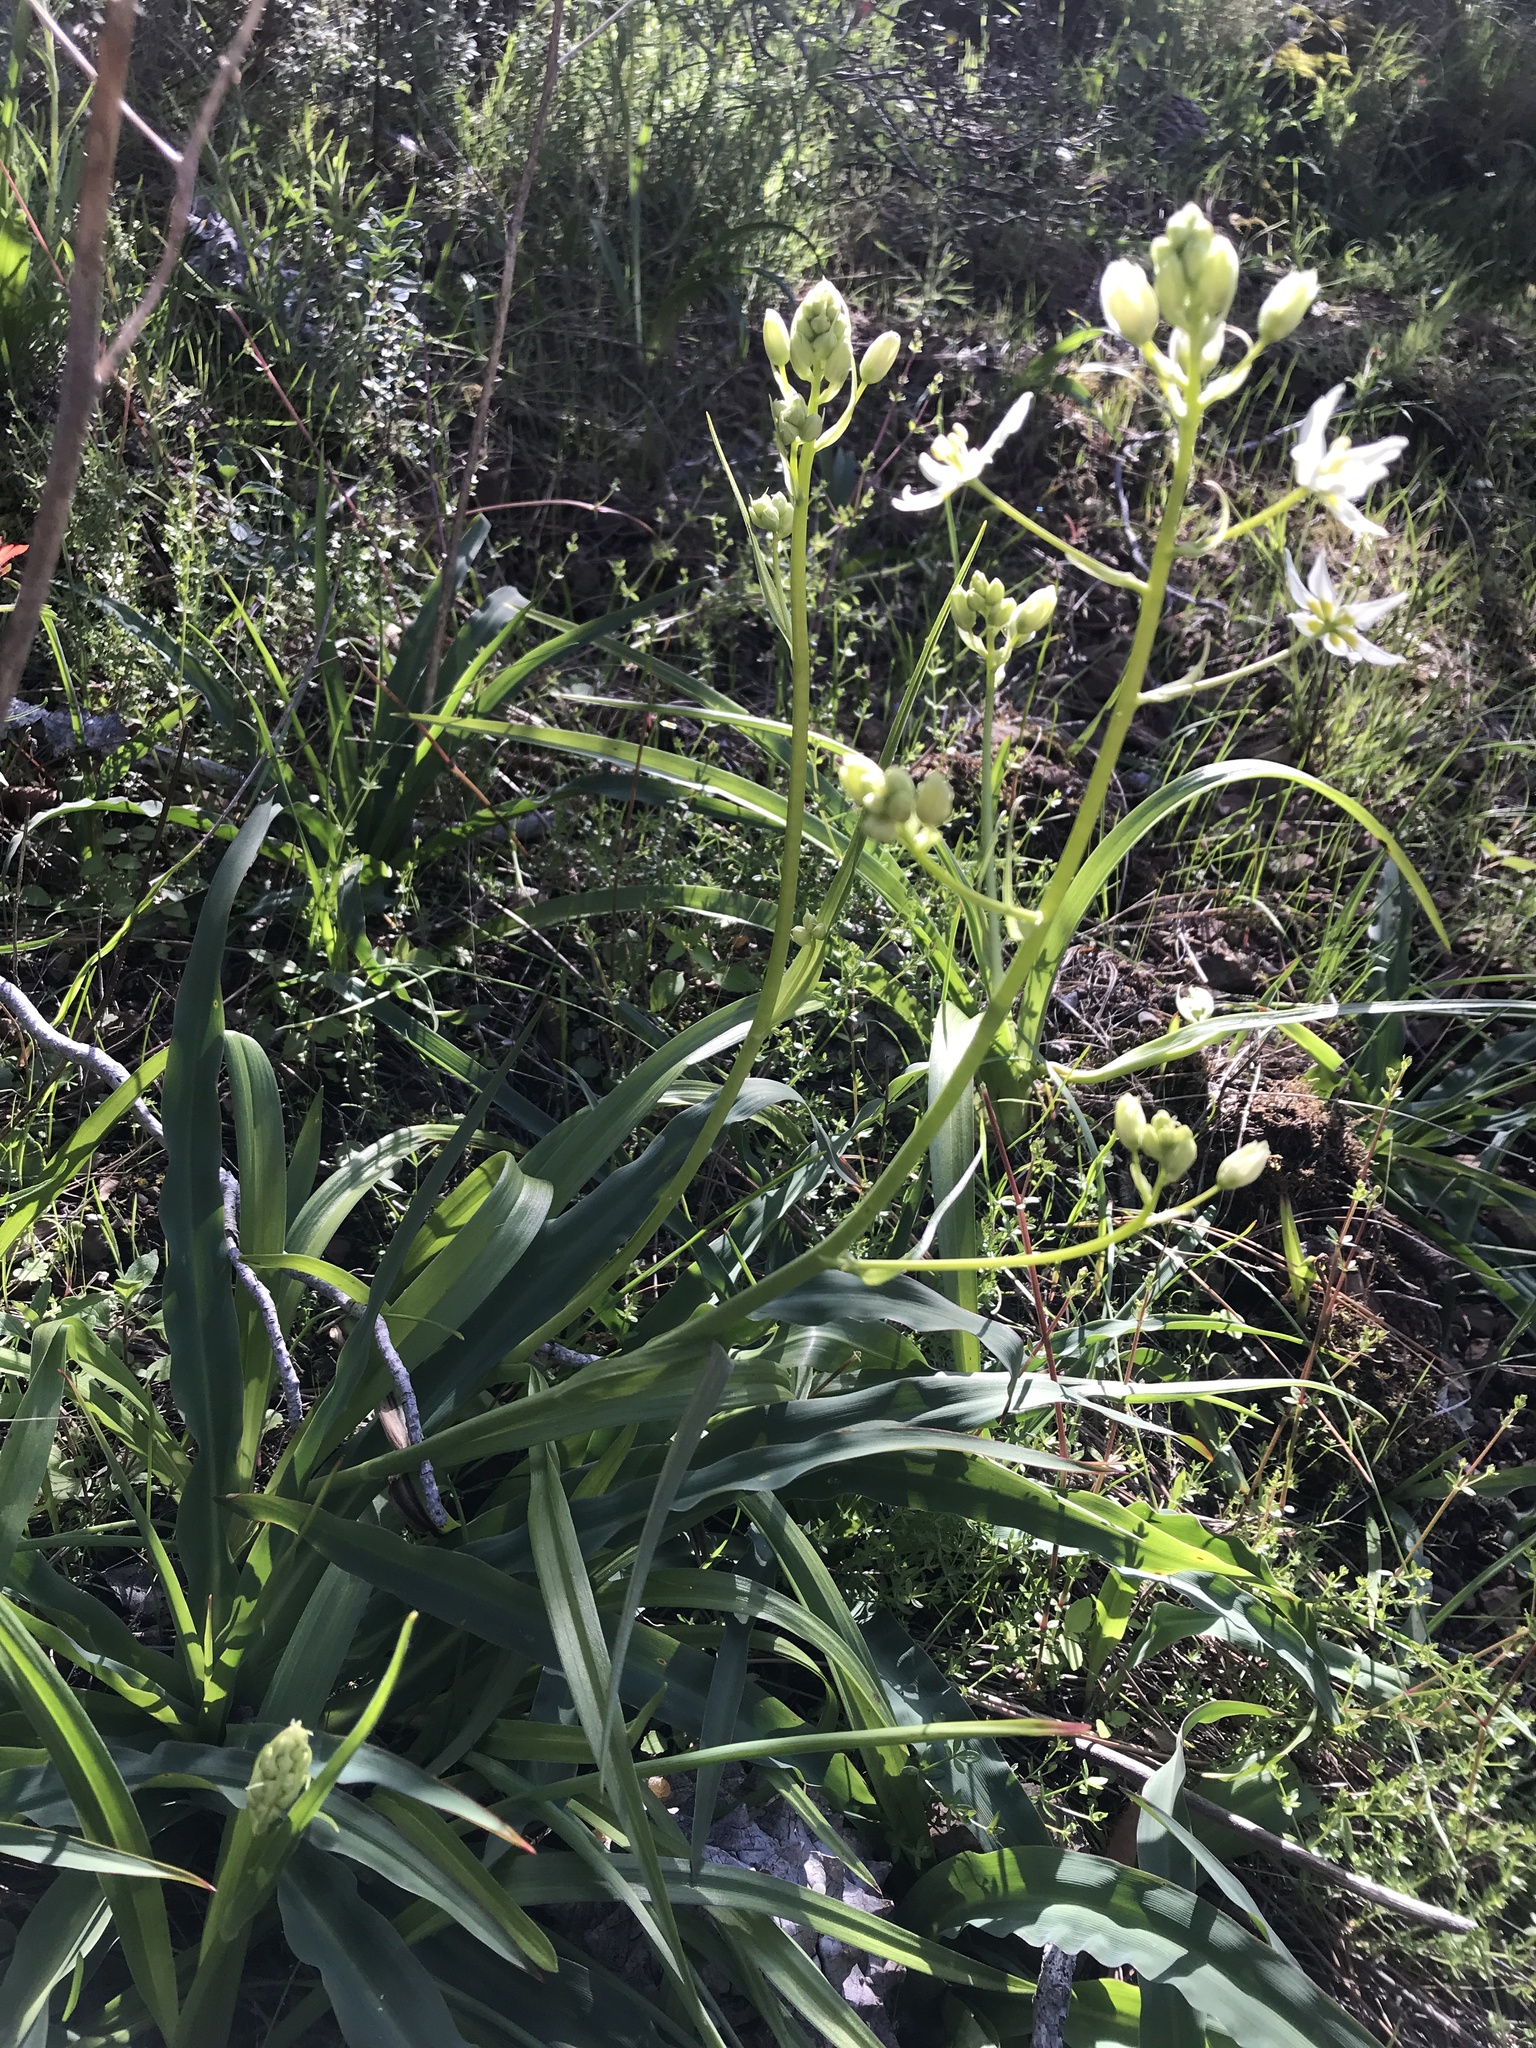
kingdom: Plantae
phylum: Tracheophyta
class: Liliopsida
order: Liliales
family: Melanthiaceae
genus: Toxicoscordion
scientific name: Toxicoscordion fremontii
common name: Fremont's death camas
